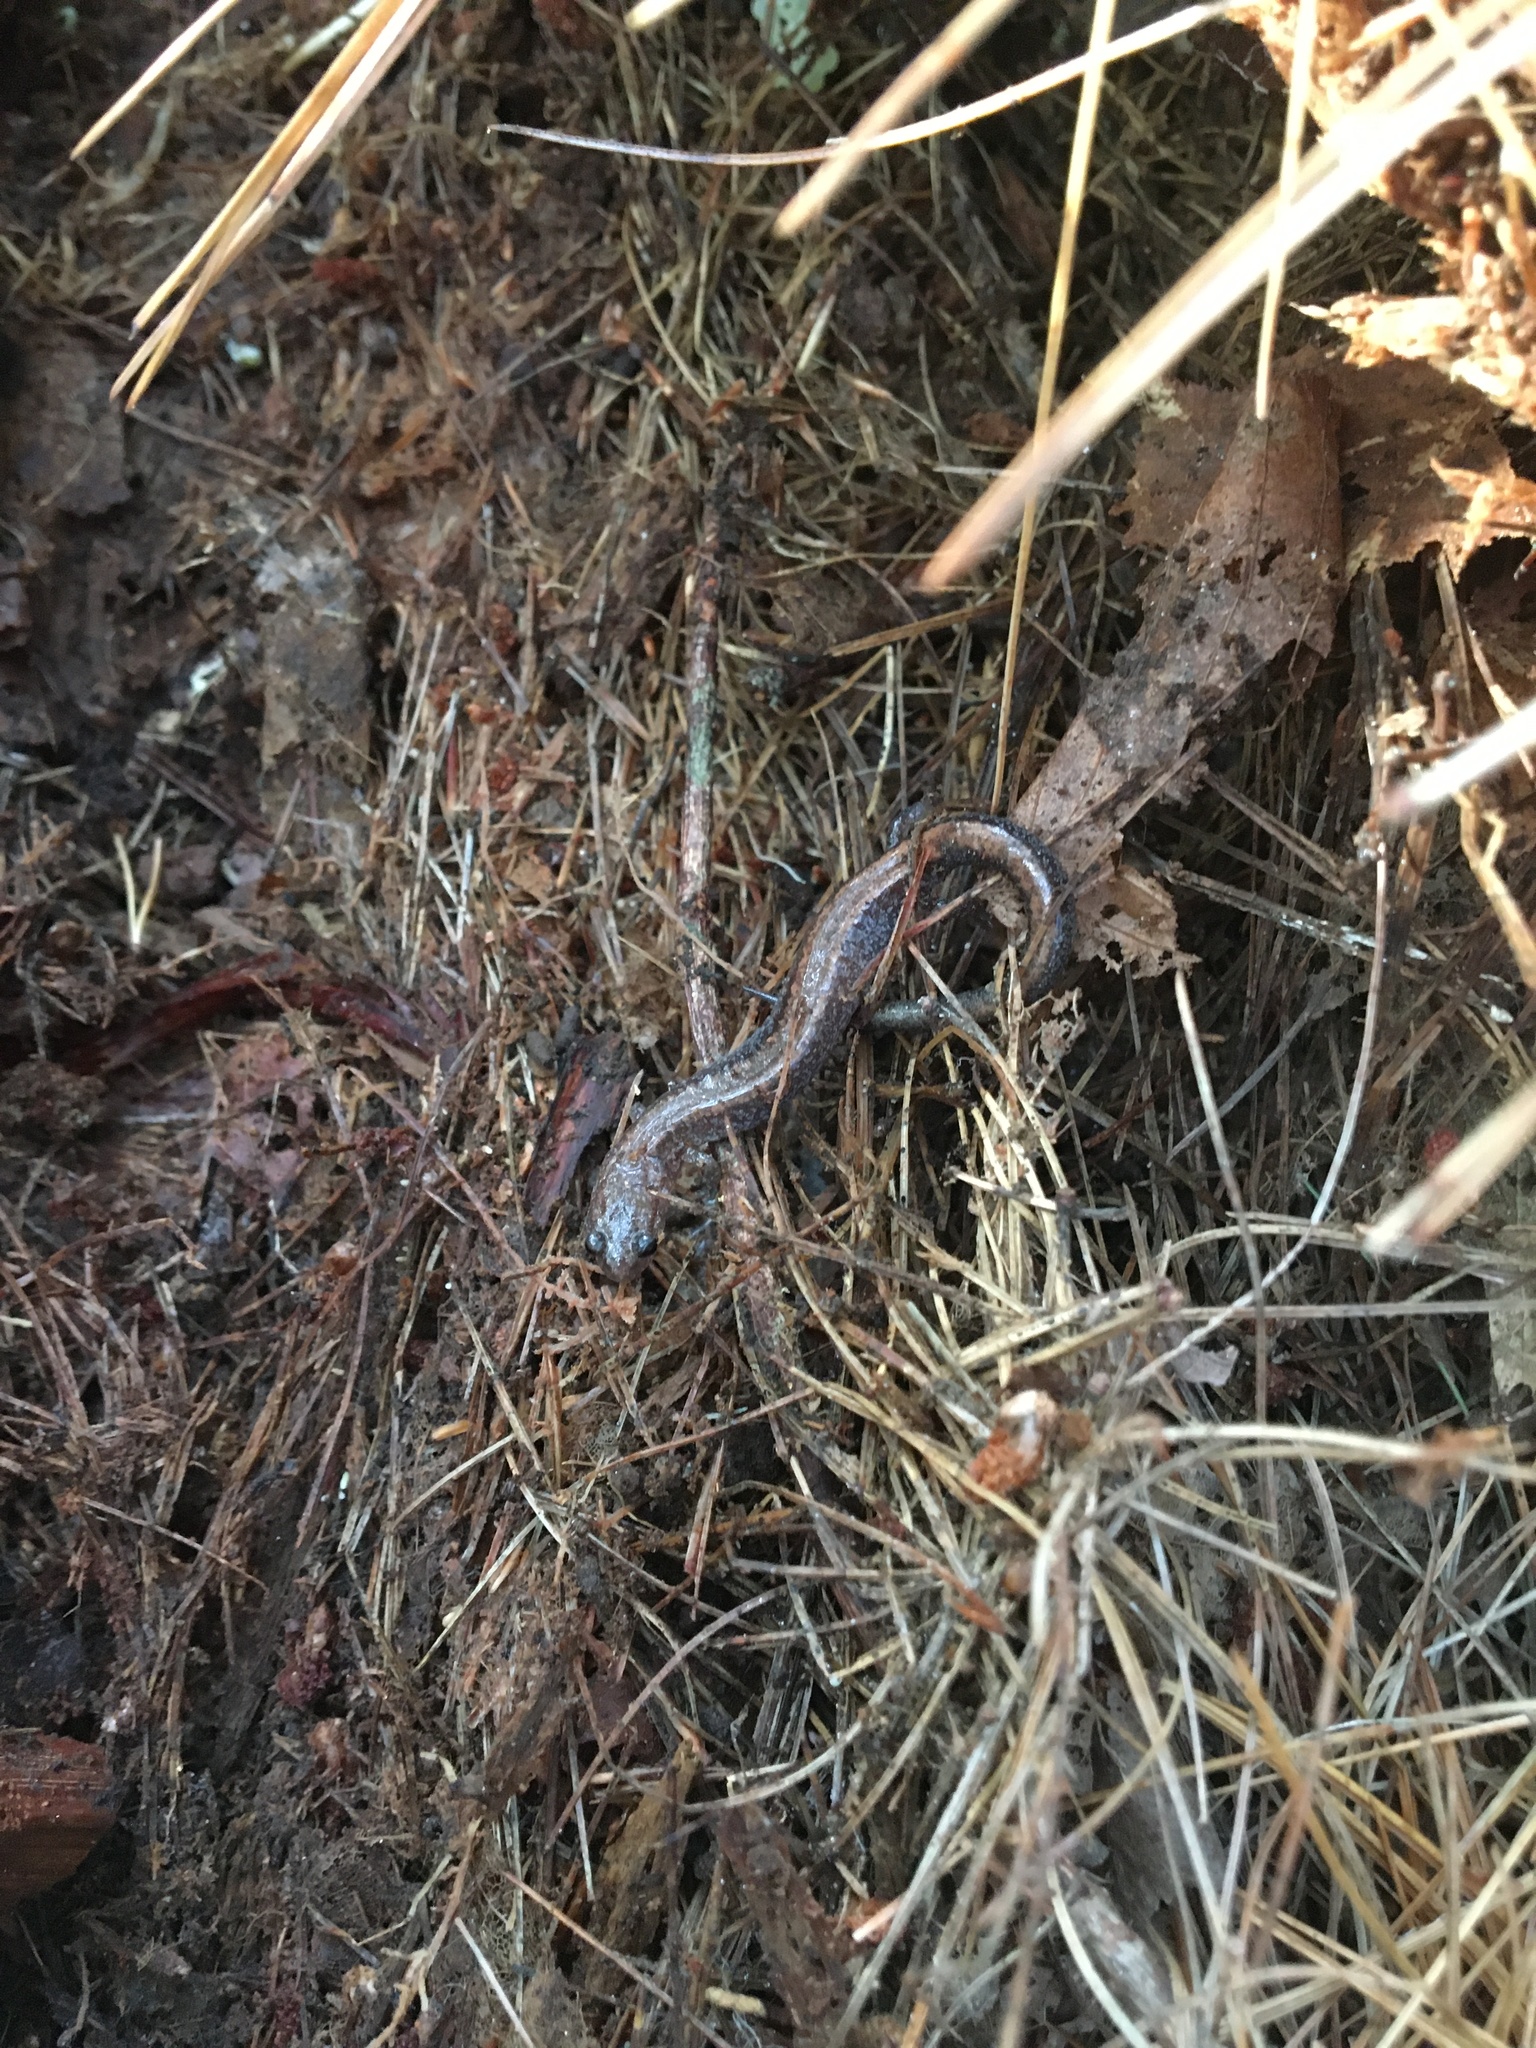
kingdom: Animalia
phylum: Chordata
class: Amphibia
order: Caudata
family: Plethodontidae
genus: Plethodon
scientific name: Plethodon cinereus
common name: Redback salamander
